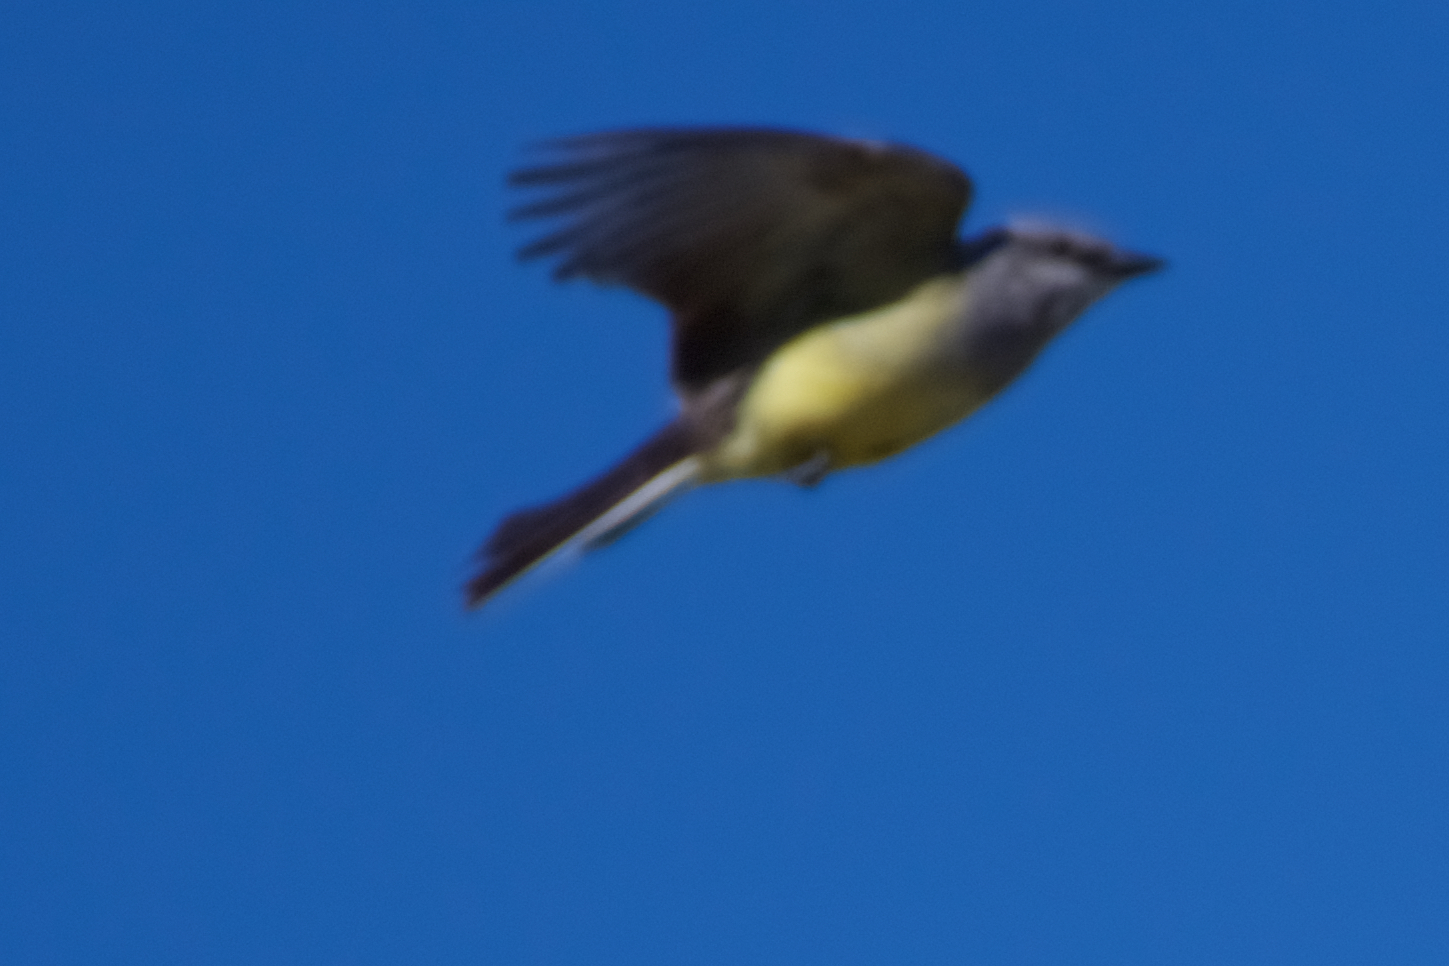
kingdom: Animalia
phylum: Chordata
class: Aves
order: Passeriformes
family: Tyrannidae
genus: Tyrannus
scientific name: Tyrannus verticalis
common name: Western kingbird
